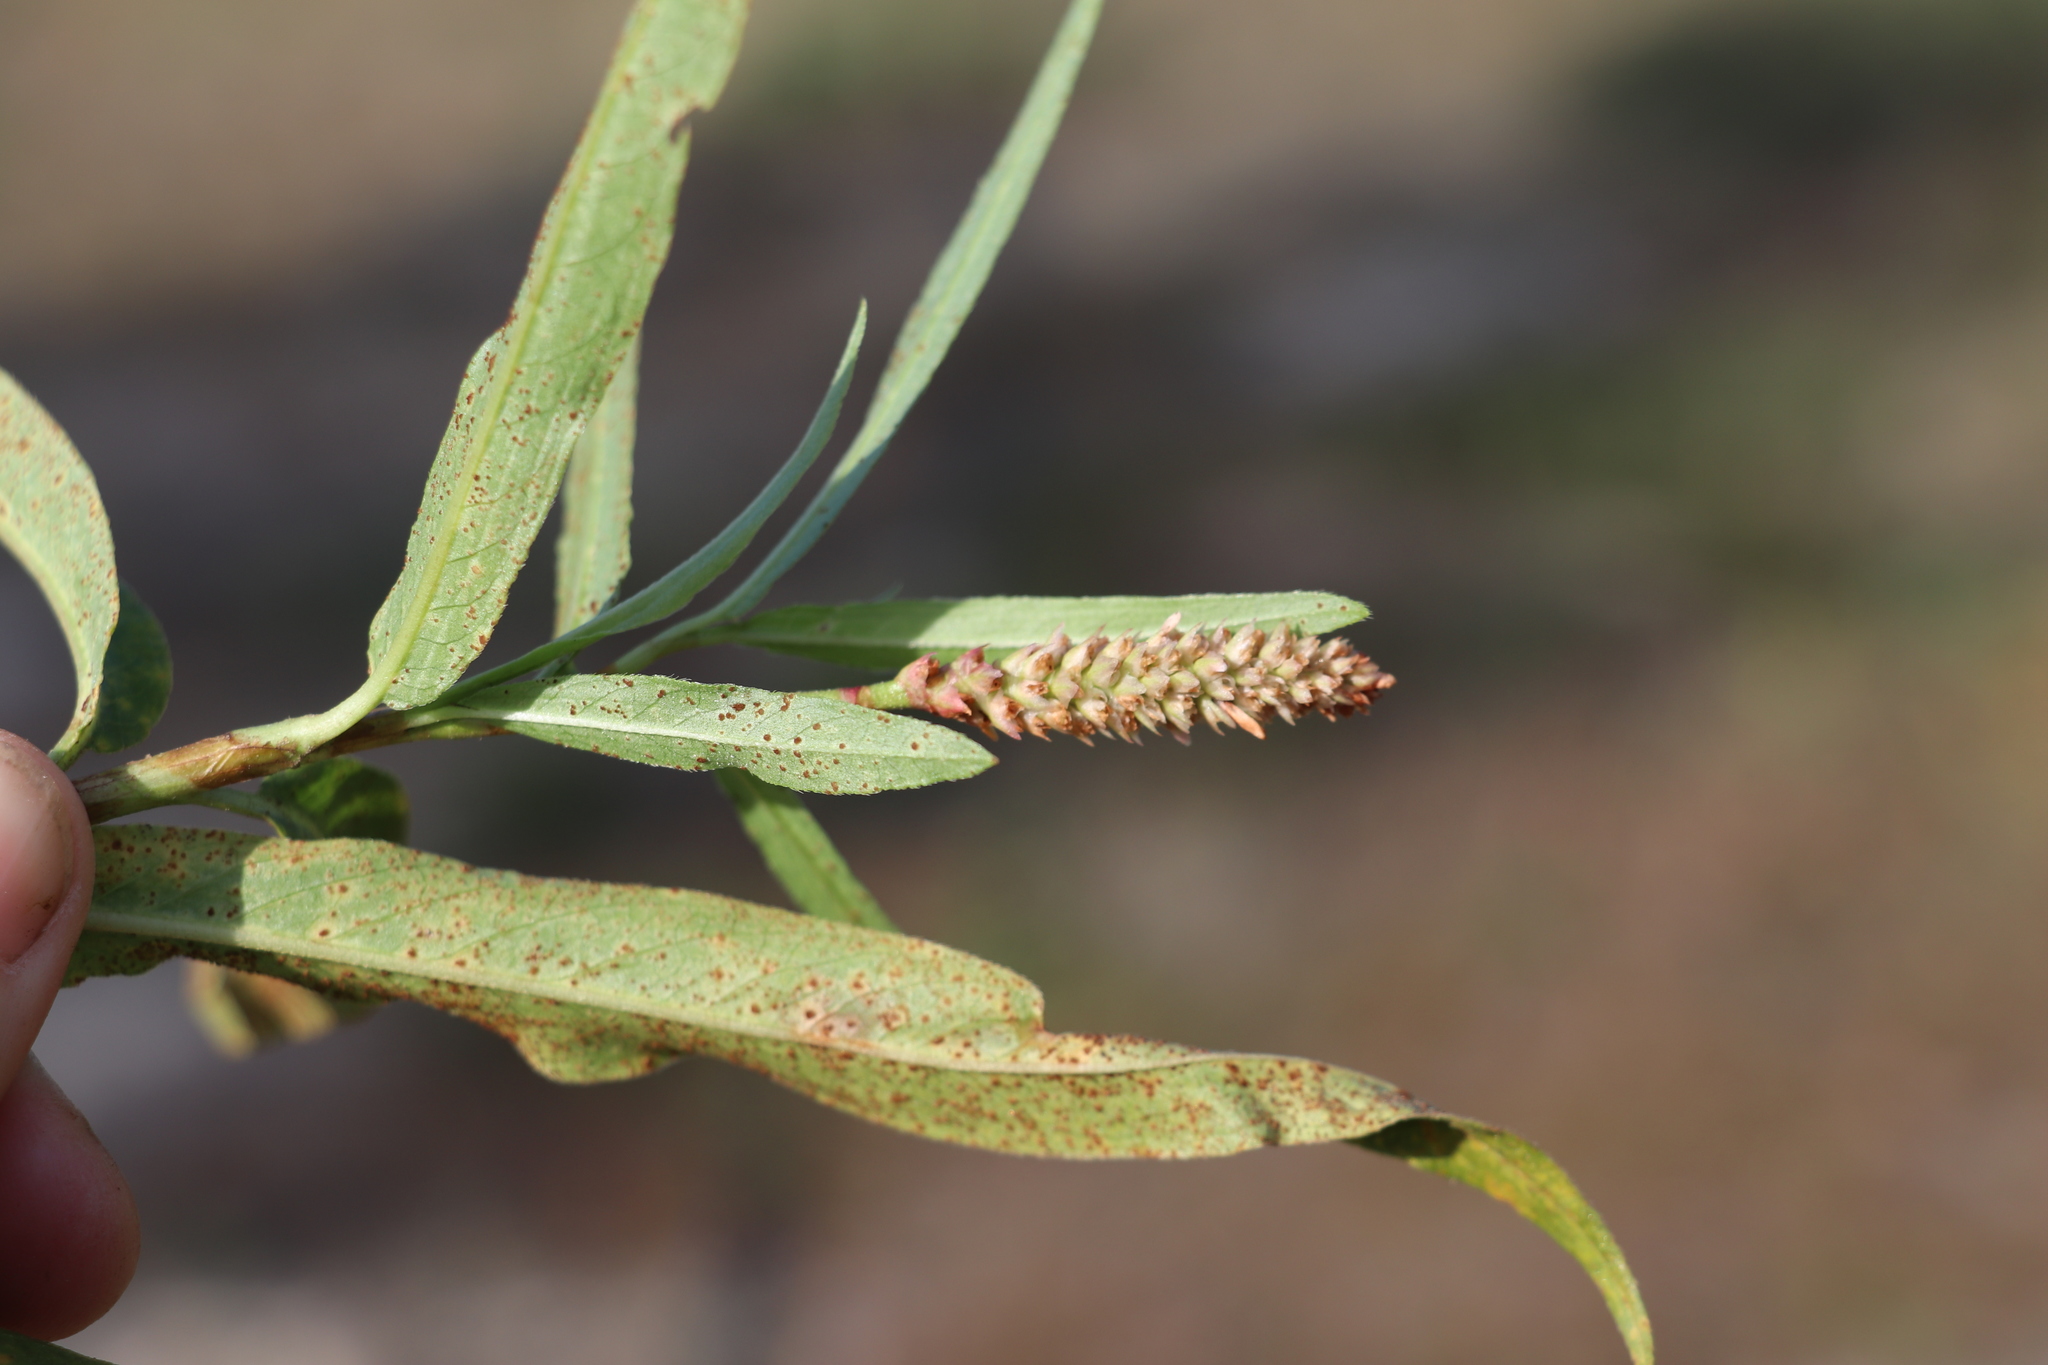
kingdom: Plantae
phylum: Tracheophyta
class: Magnoliopsida
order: Caryophyllales
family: Polygonaceae
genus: Persicaria
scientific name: Persicaria amphibia
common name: Amphibious bistort
